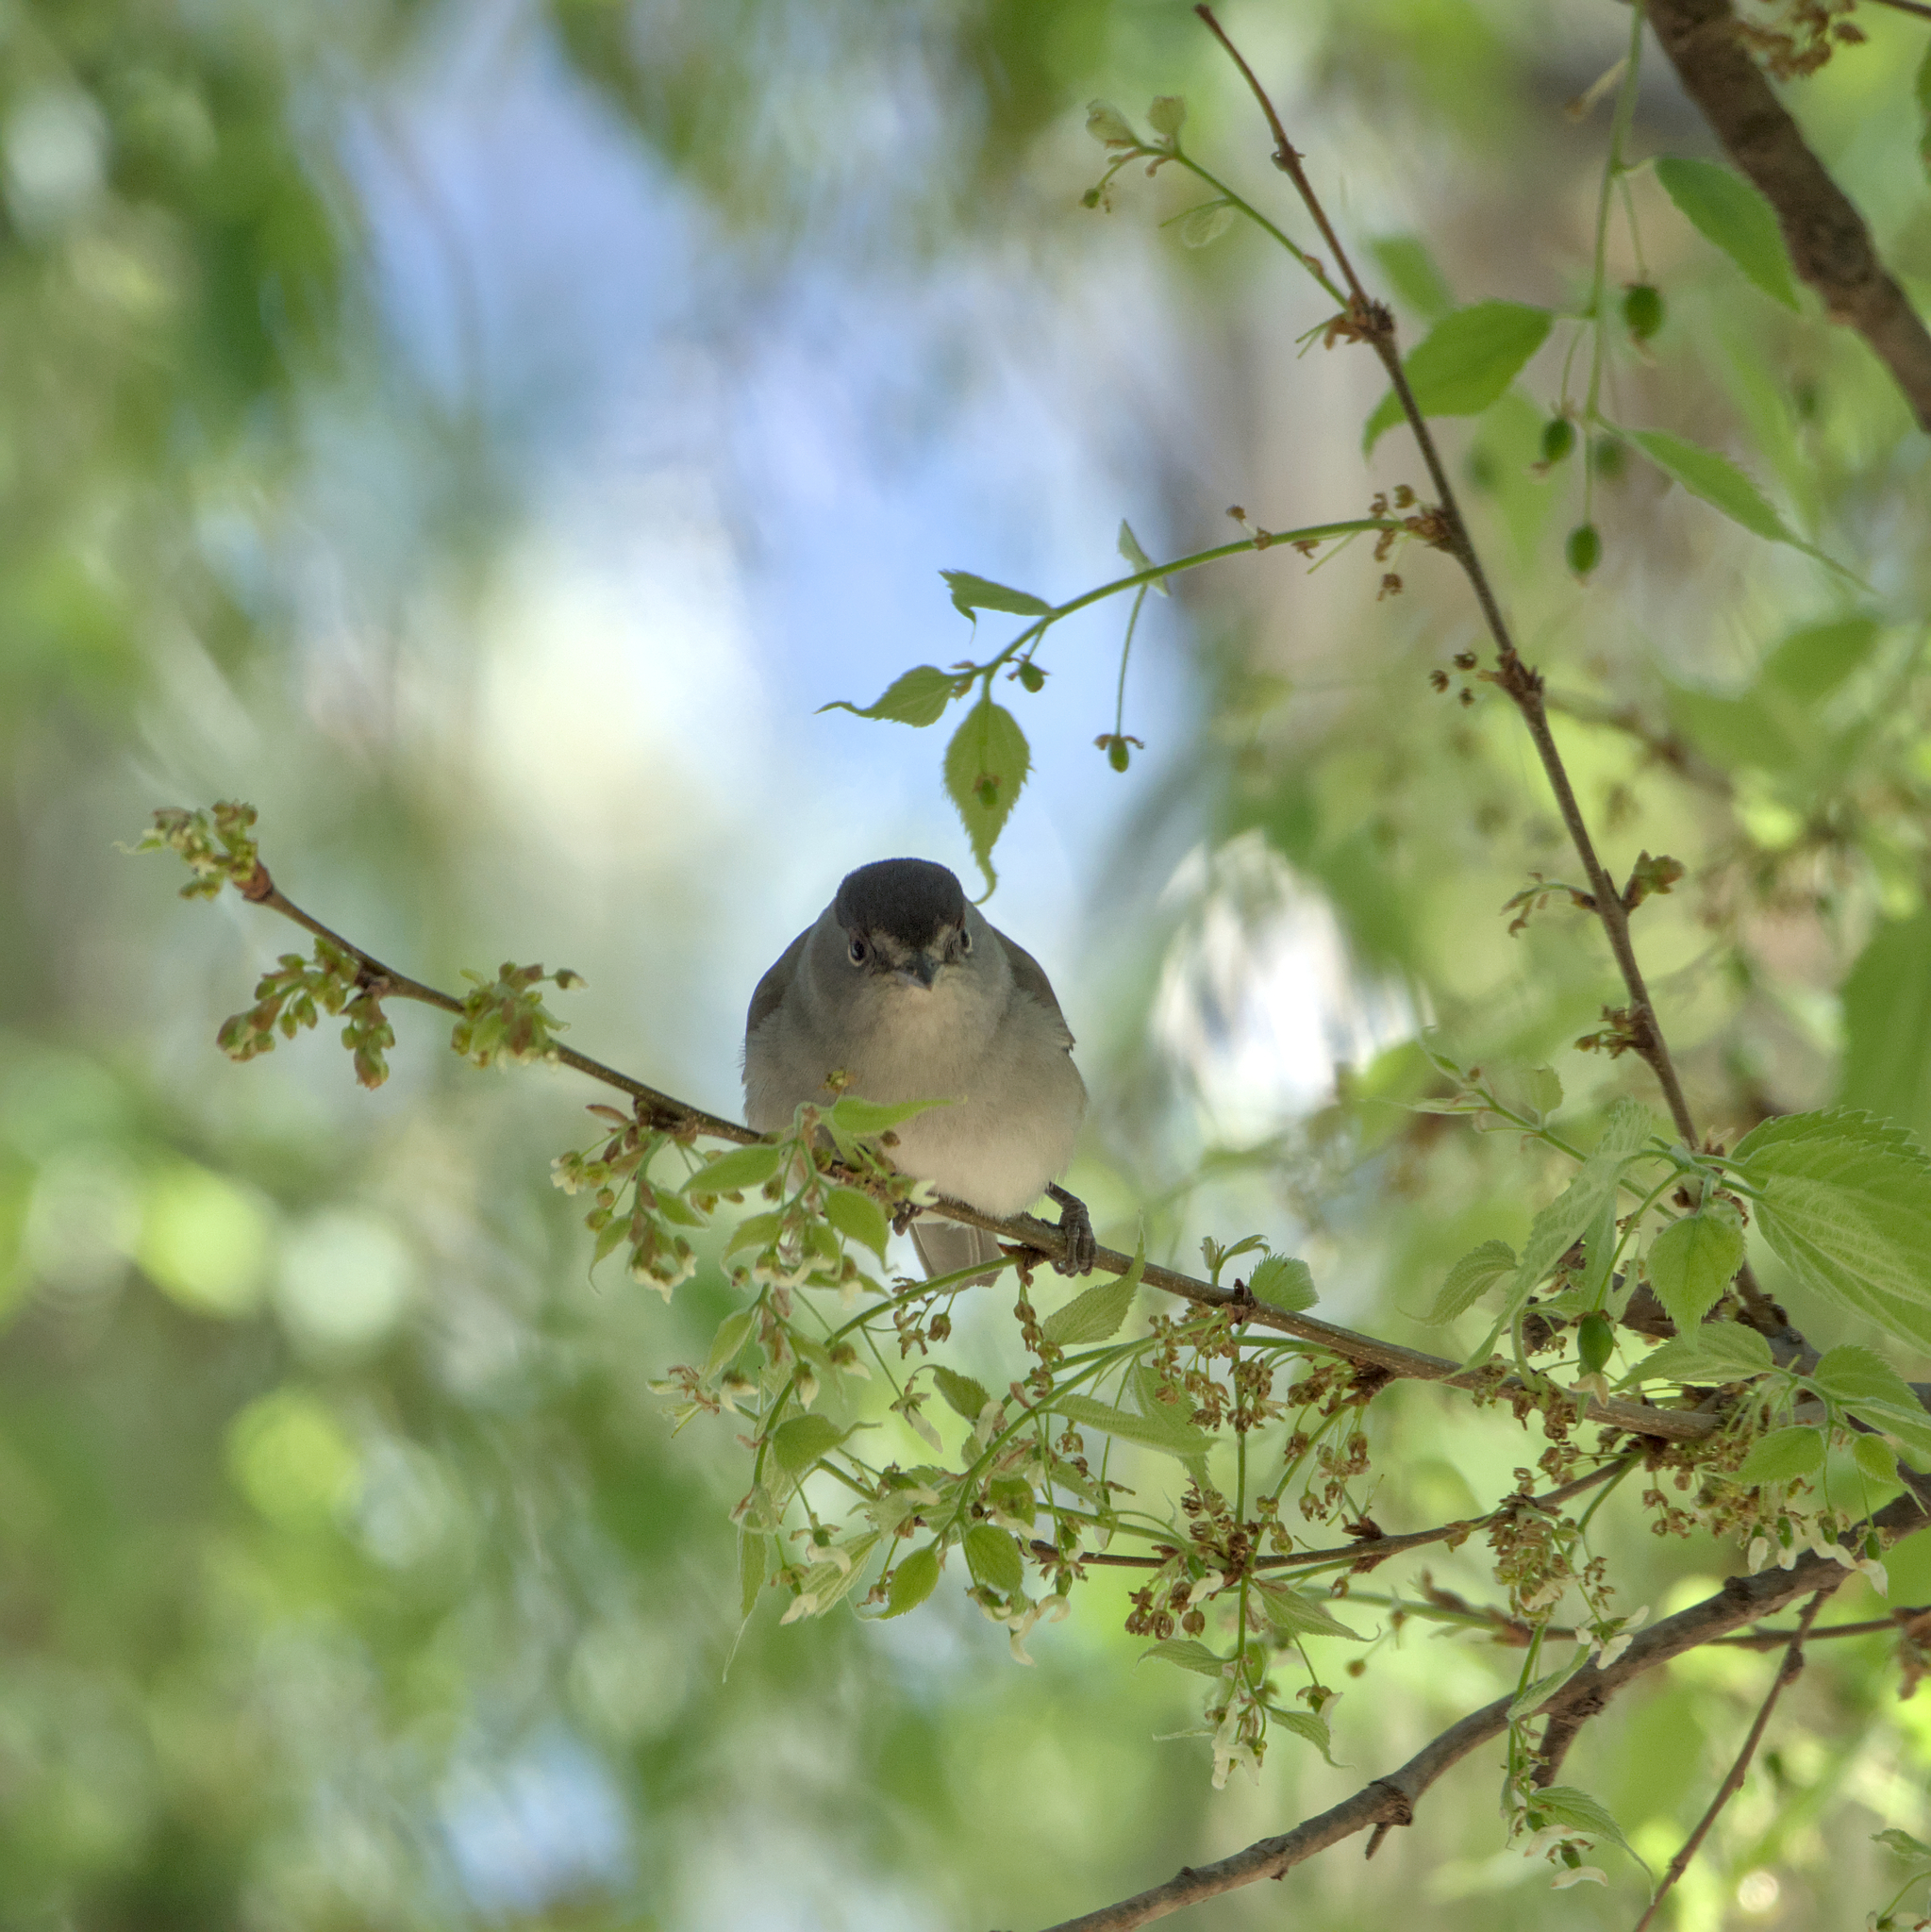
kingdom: Animalia
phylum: Chordata
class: Aves
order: Passeriformes
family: Sylviidae
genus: Sylvia
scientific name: Sylvia atricapilla
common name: Eurasian blackcap
